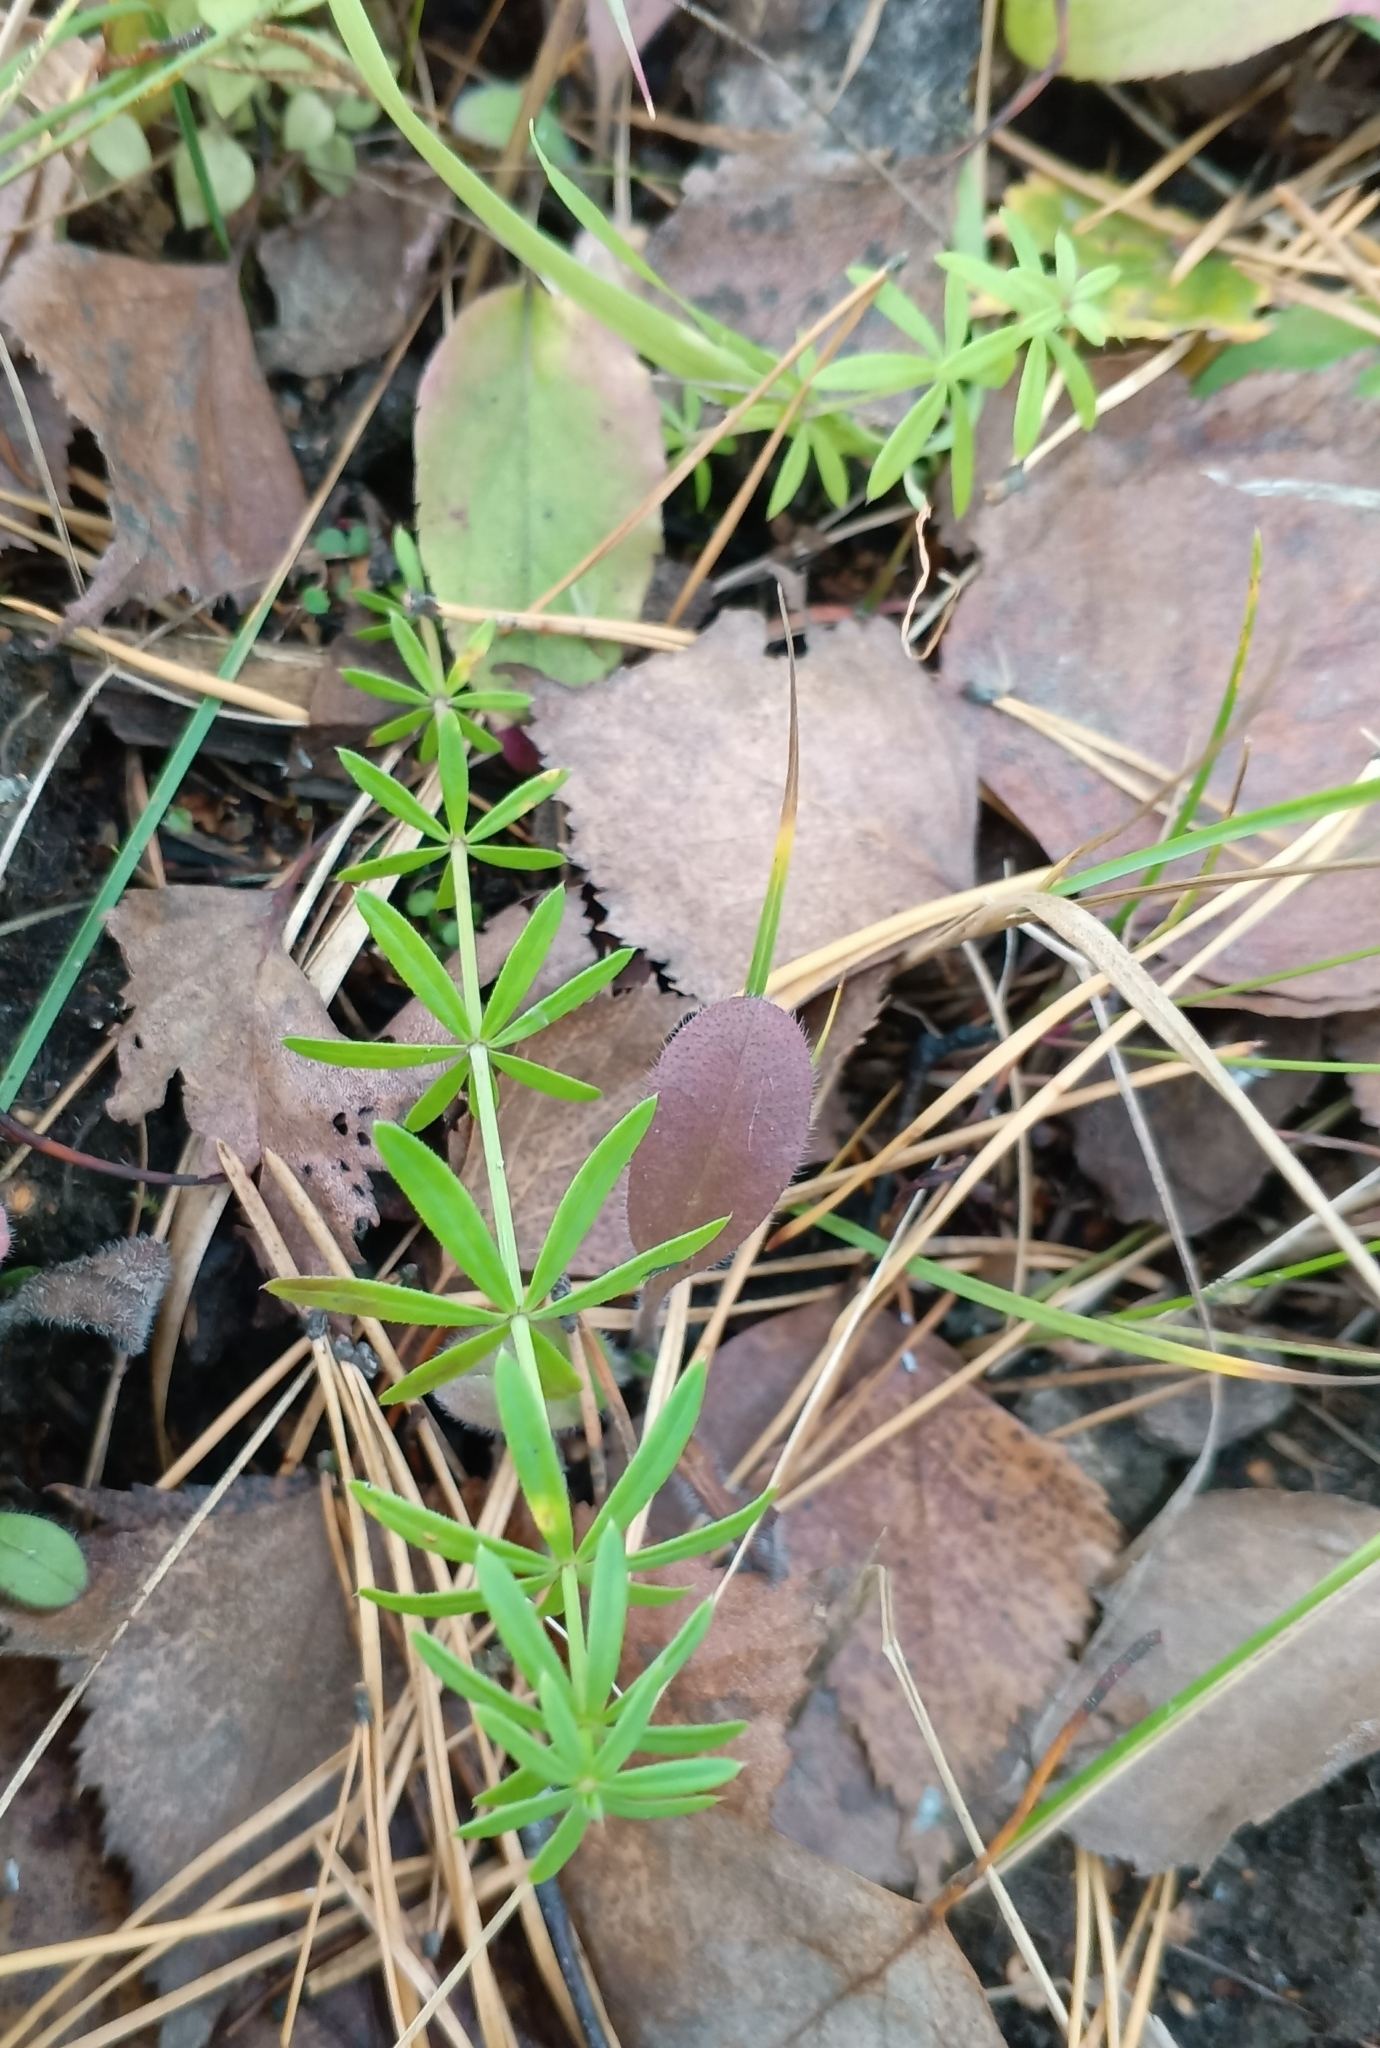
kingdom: Plantae
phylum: Tracheophyta
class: Magnoliopsida
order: Gentianales
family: Rubiaceae
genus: Galium
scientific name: Galium mollugo
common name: Hedge bedstraw
